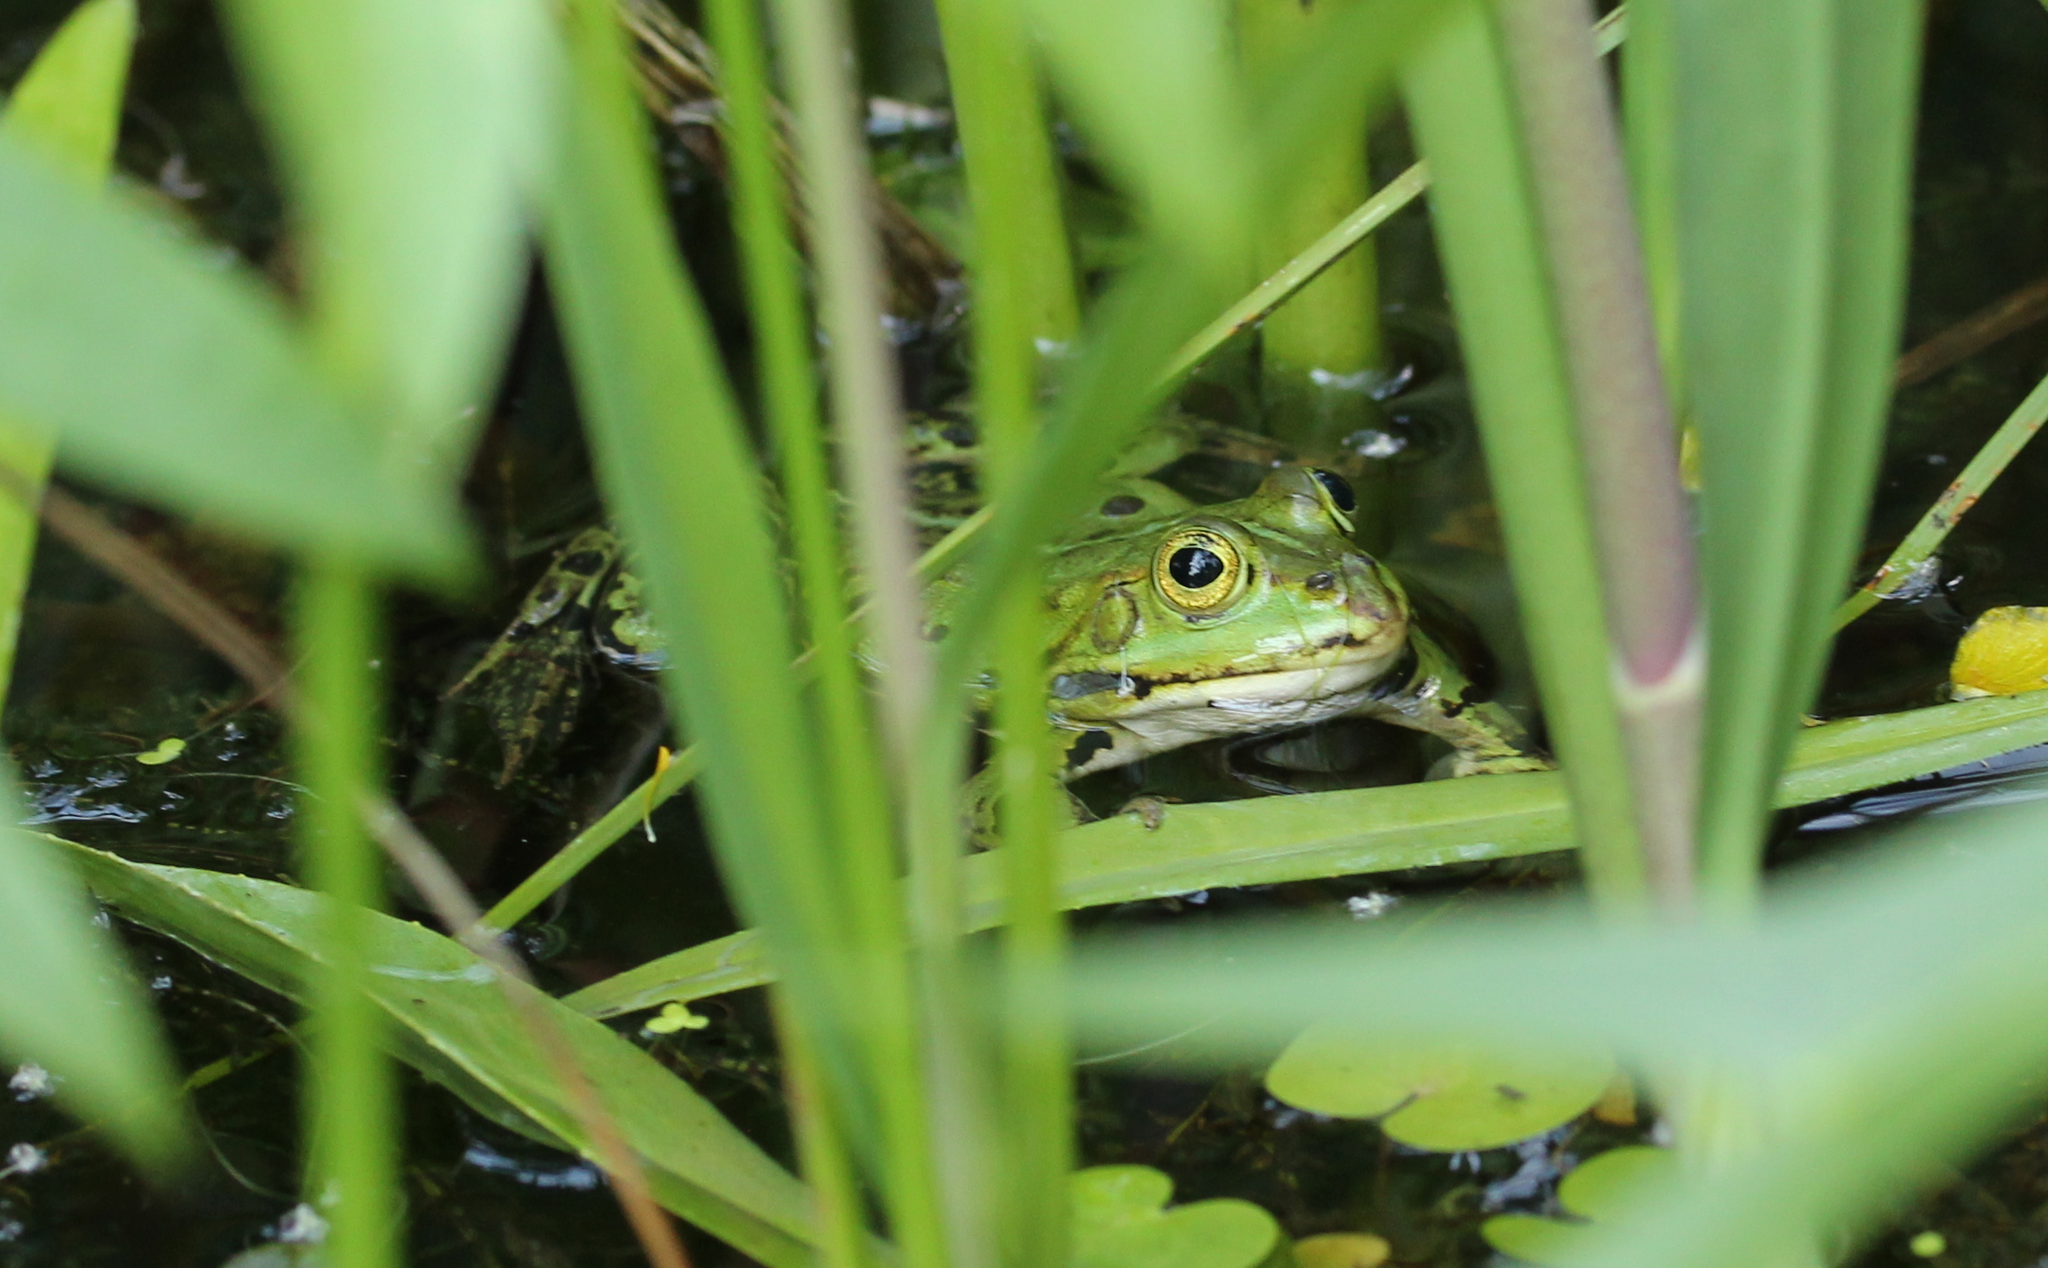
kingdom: Animalia
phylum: Chordata
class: Amphibia
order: Anura
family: Ranidae
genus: Pelophylax
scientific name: Pelophylax
